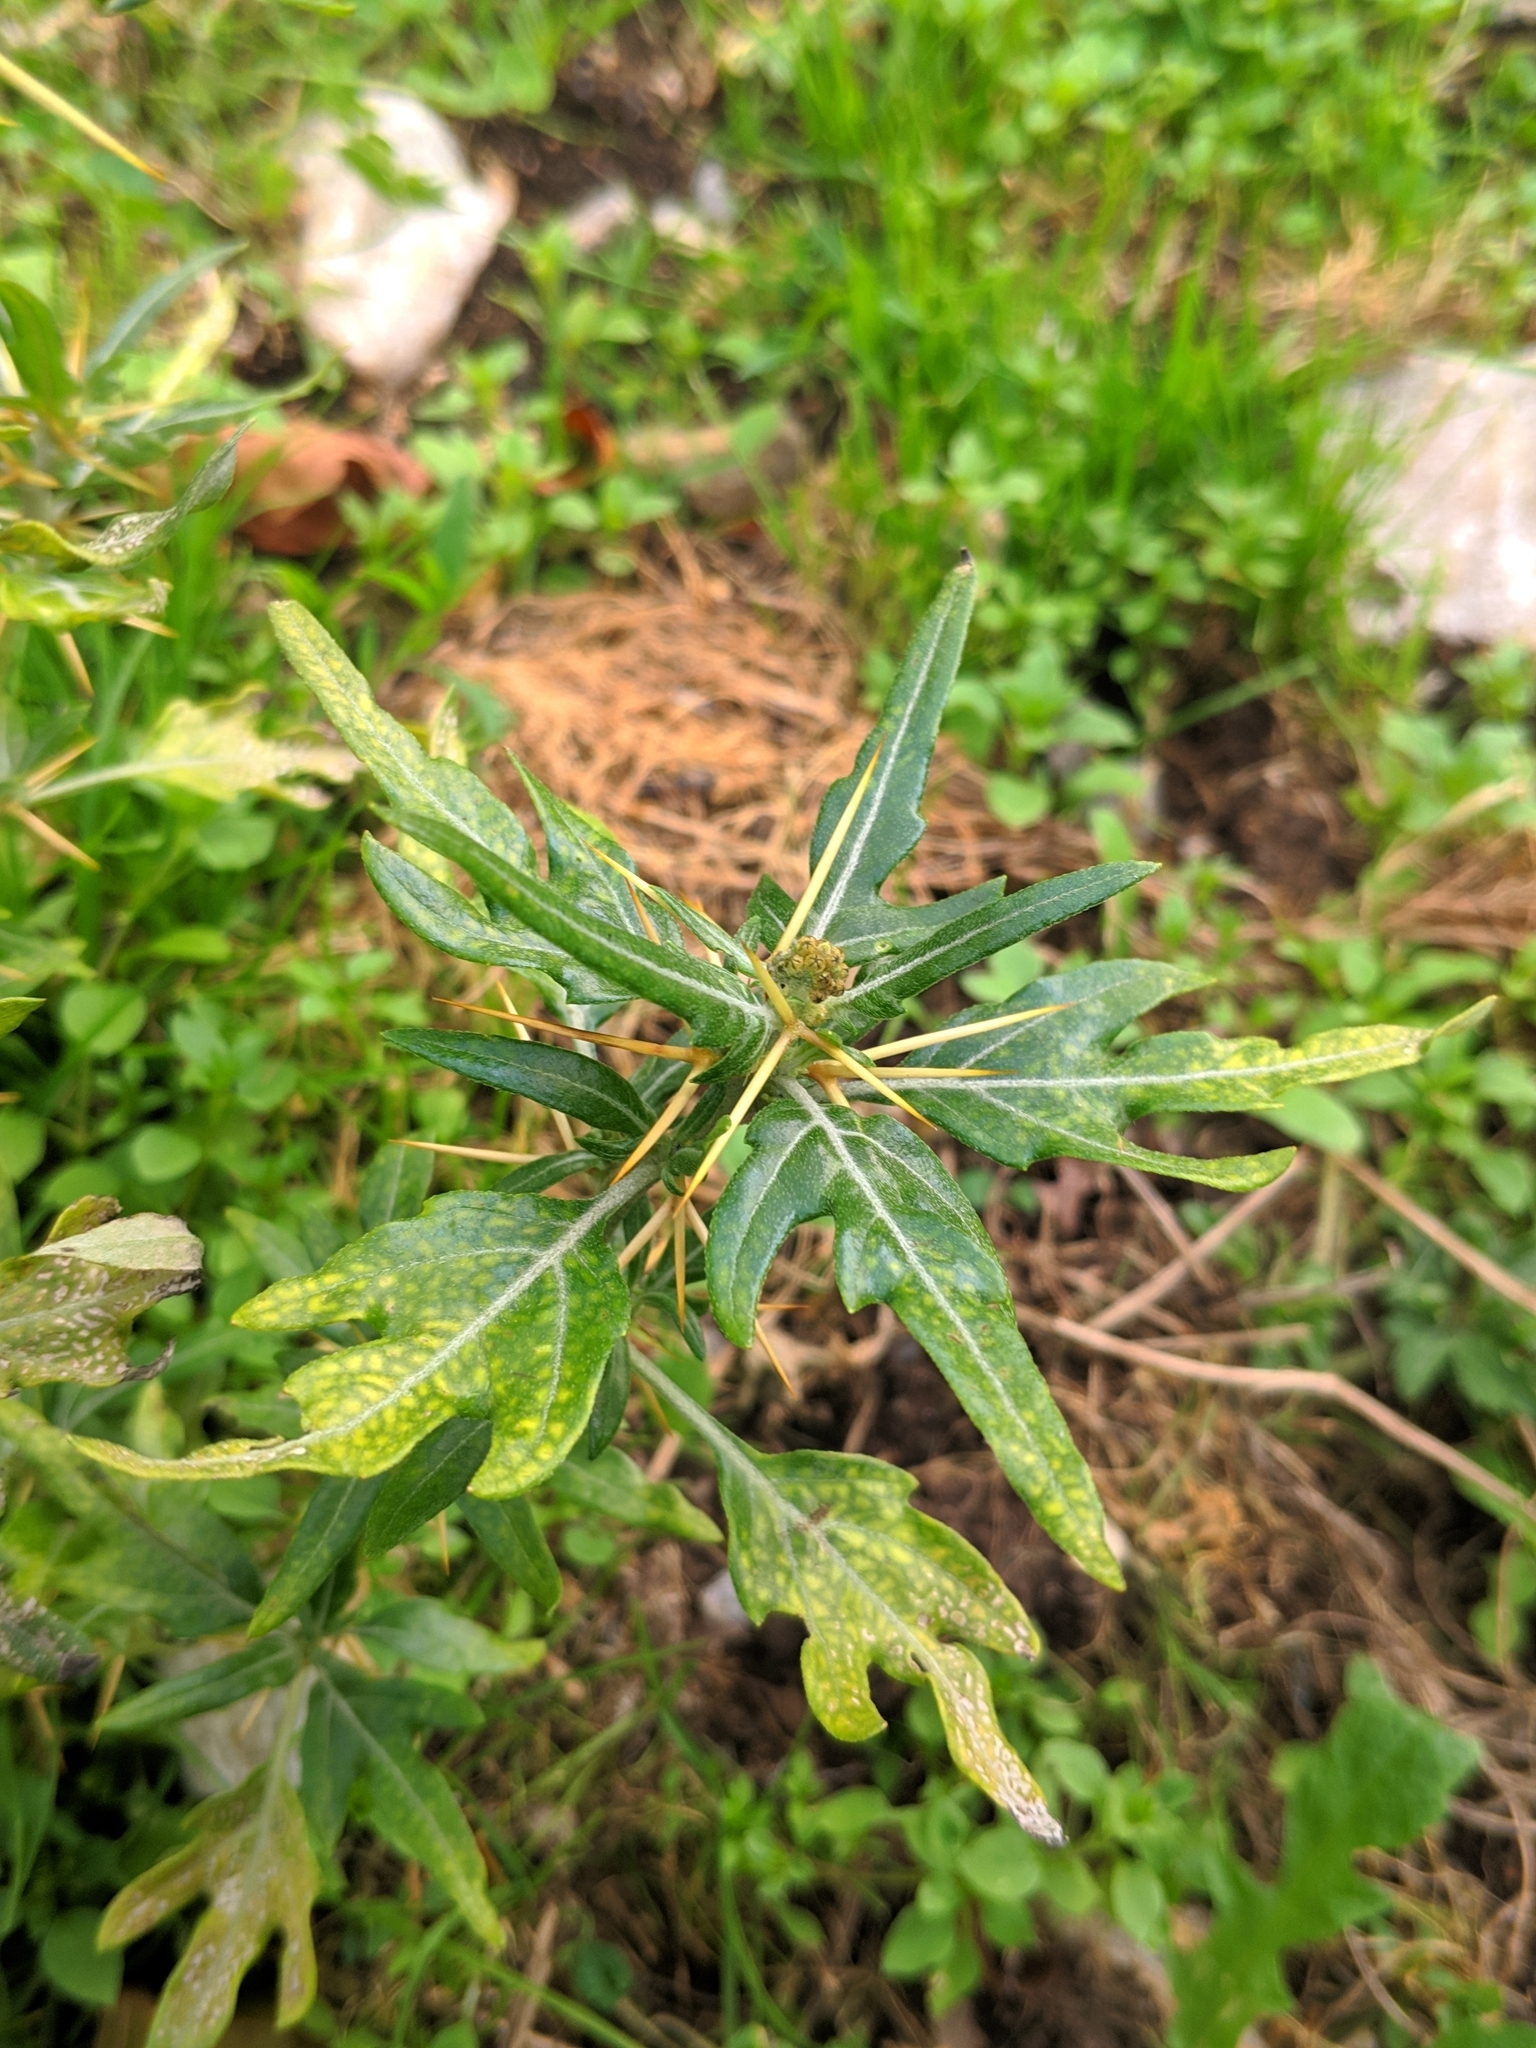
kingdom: Plantae
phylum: Tracheophyta
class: Magnoliopsida
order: Asterales
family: Asteraceae
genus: Xanthium
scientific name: Xanthium spinosum
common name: Spiny cocklebur
